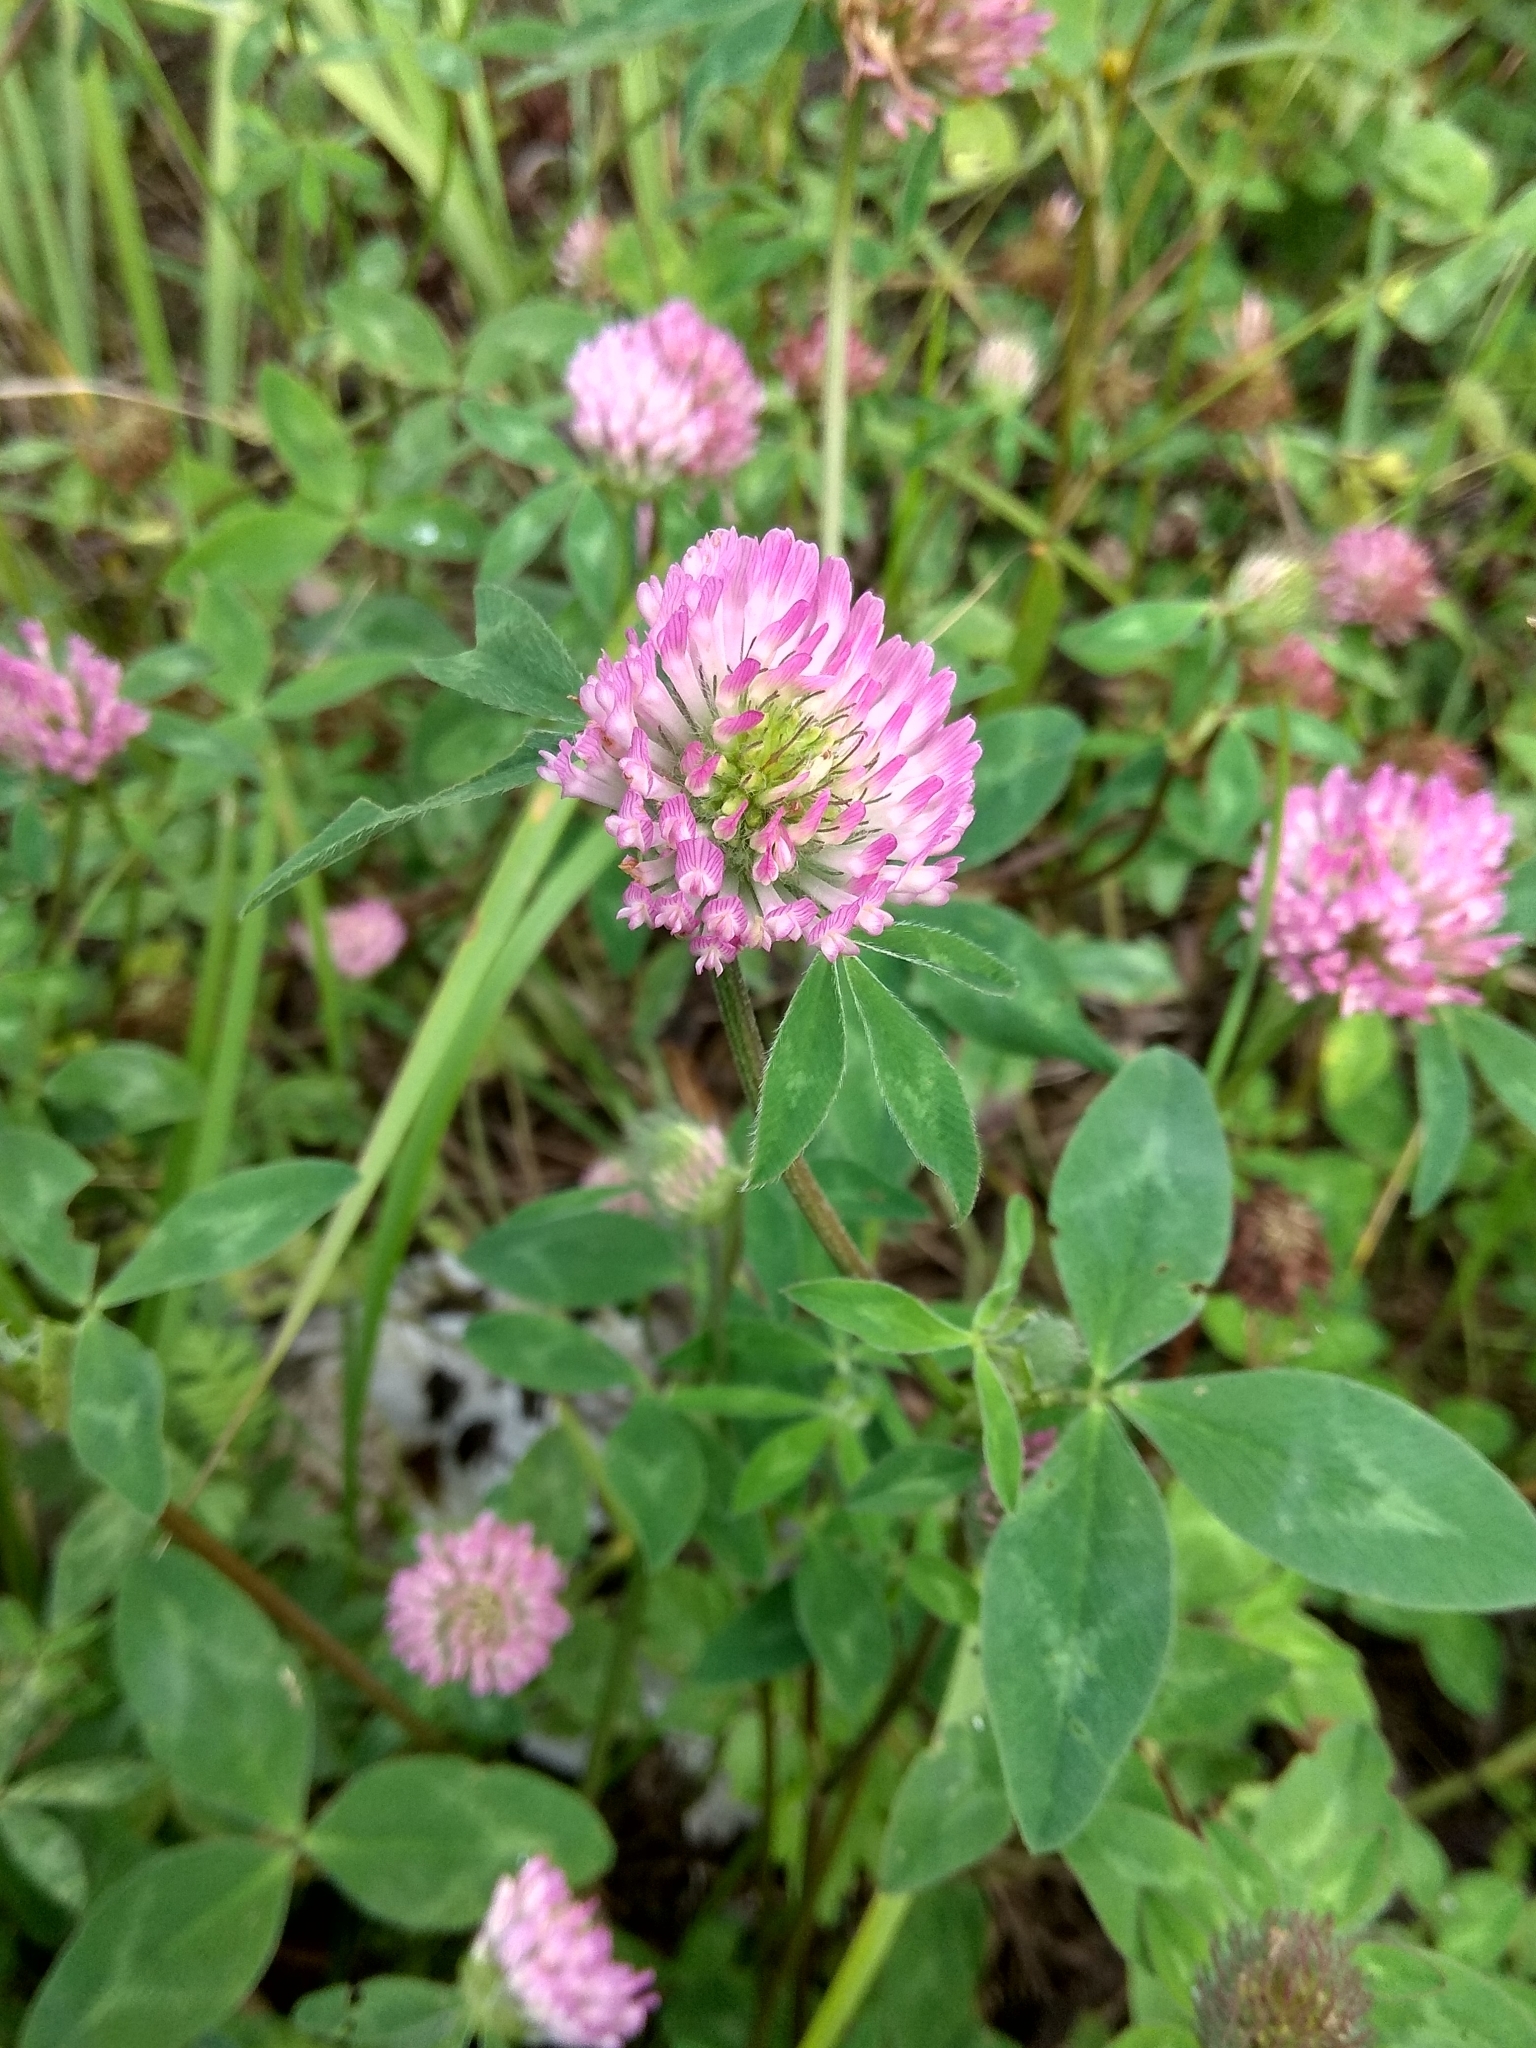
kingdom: Plantae
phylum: Tracheophyta
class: Magnoliopsida
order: Fabales
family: Fabaceae
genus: Trifolium
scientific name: Trifolium pratense
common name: Red clover
